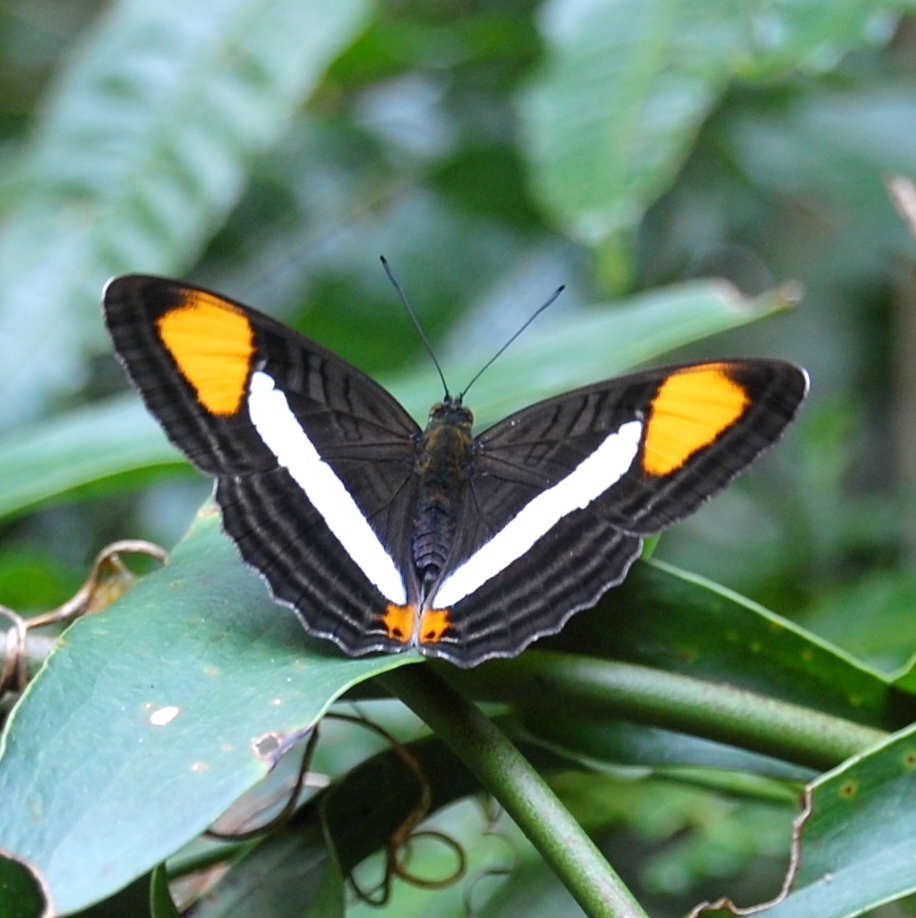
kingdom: Animalia
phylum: Arthropoda
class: Insecta
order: Lepidoptera
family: Nymphalidae
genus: Limenitis
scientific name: Limenitis mythra
